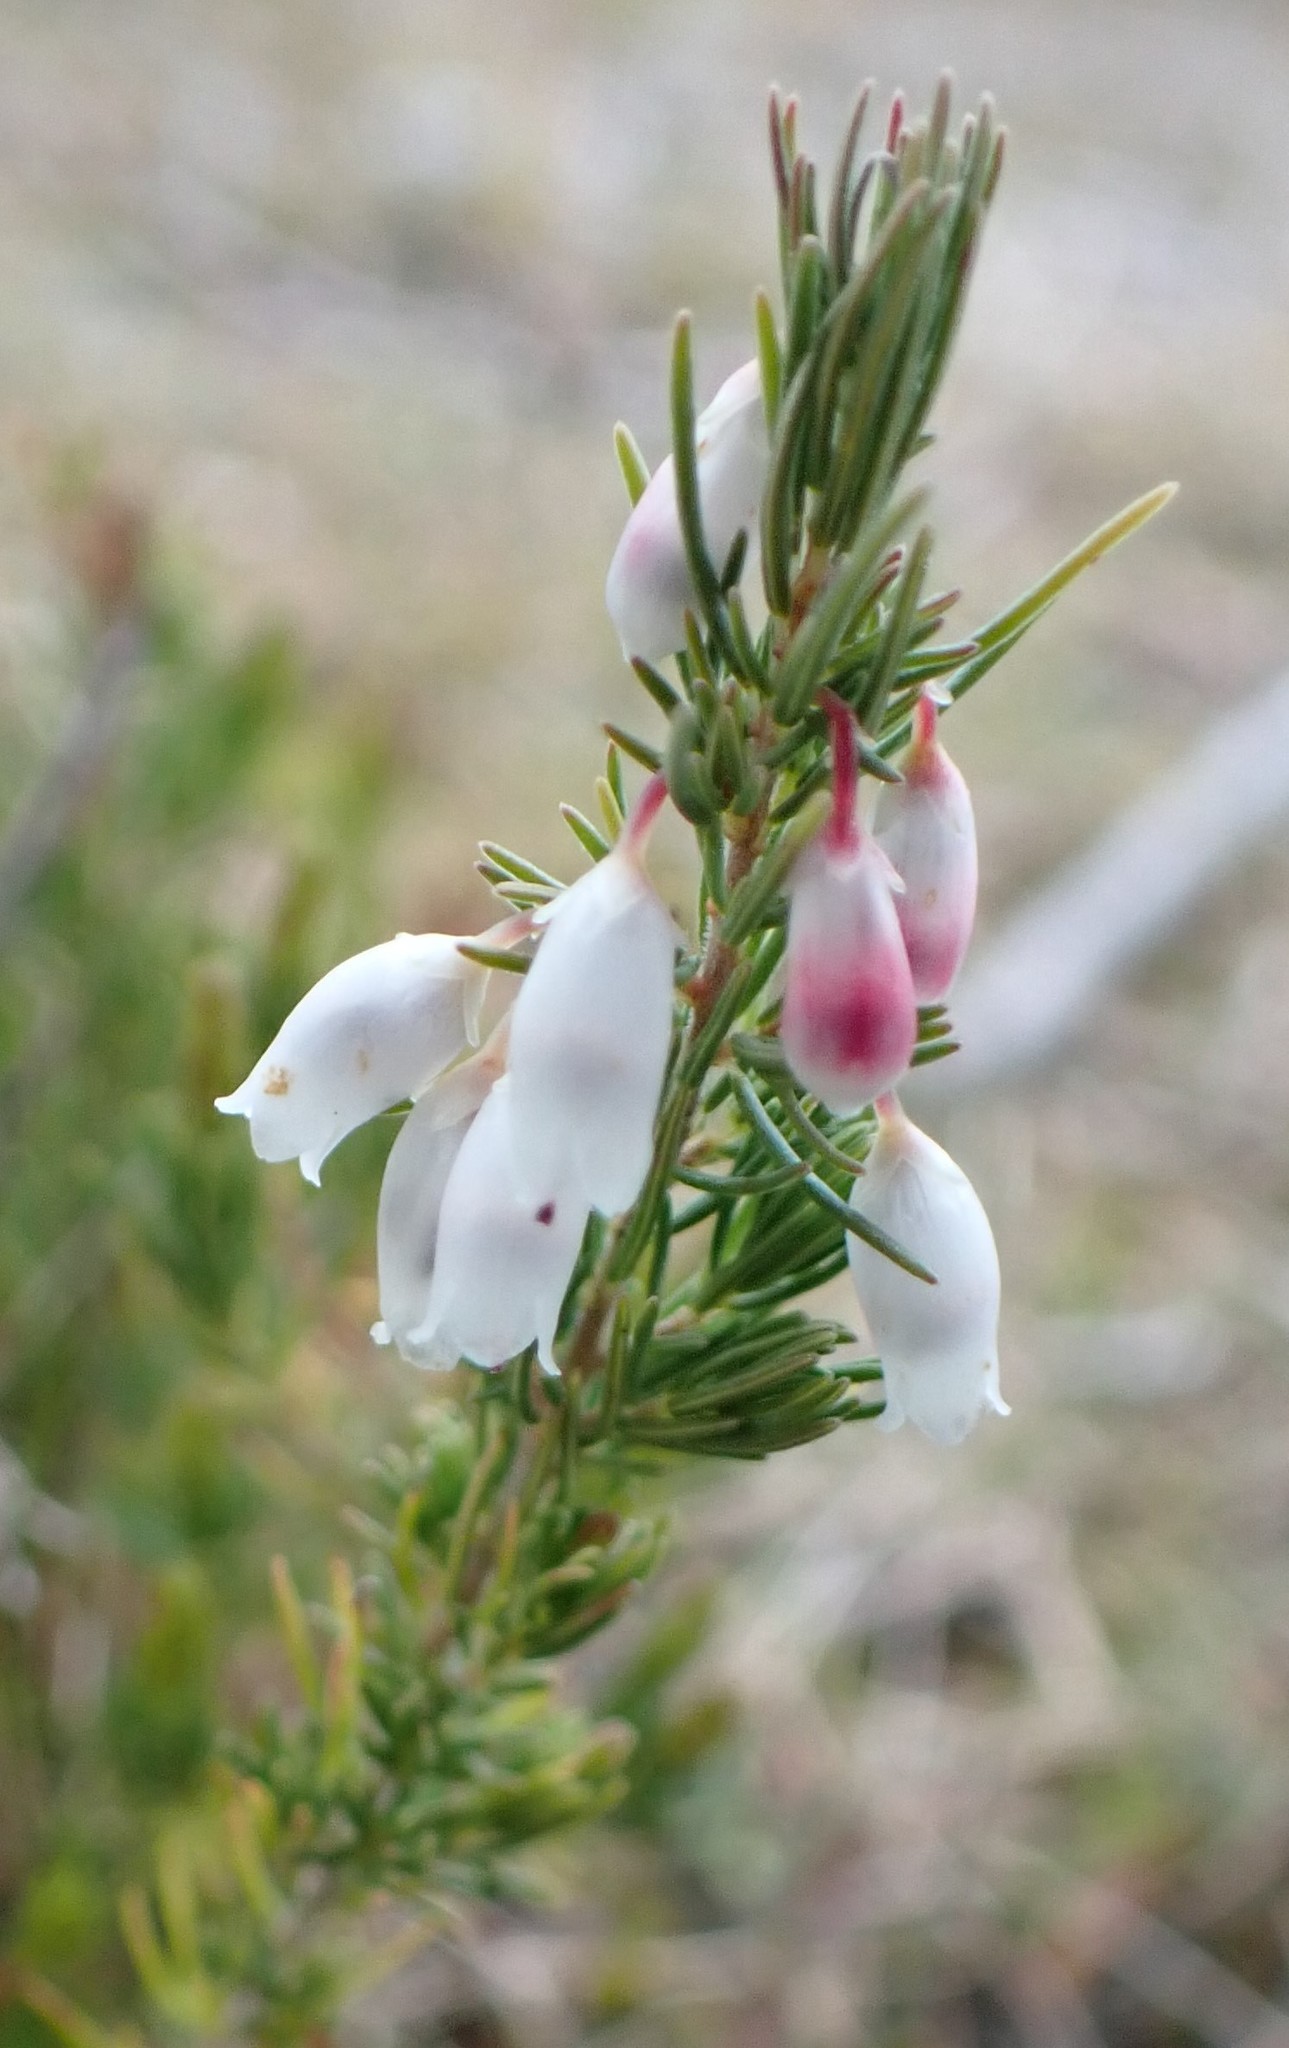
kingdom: Plantae
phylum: Tracheophyta
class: Magnoliopsida
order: Ericales
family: Ericaceae
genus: Erica
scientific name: Erica lusitanica
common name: Spanish heath
